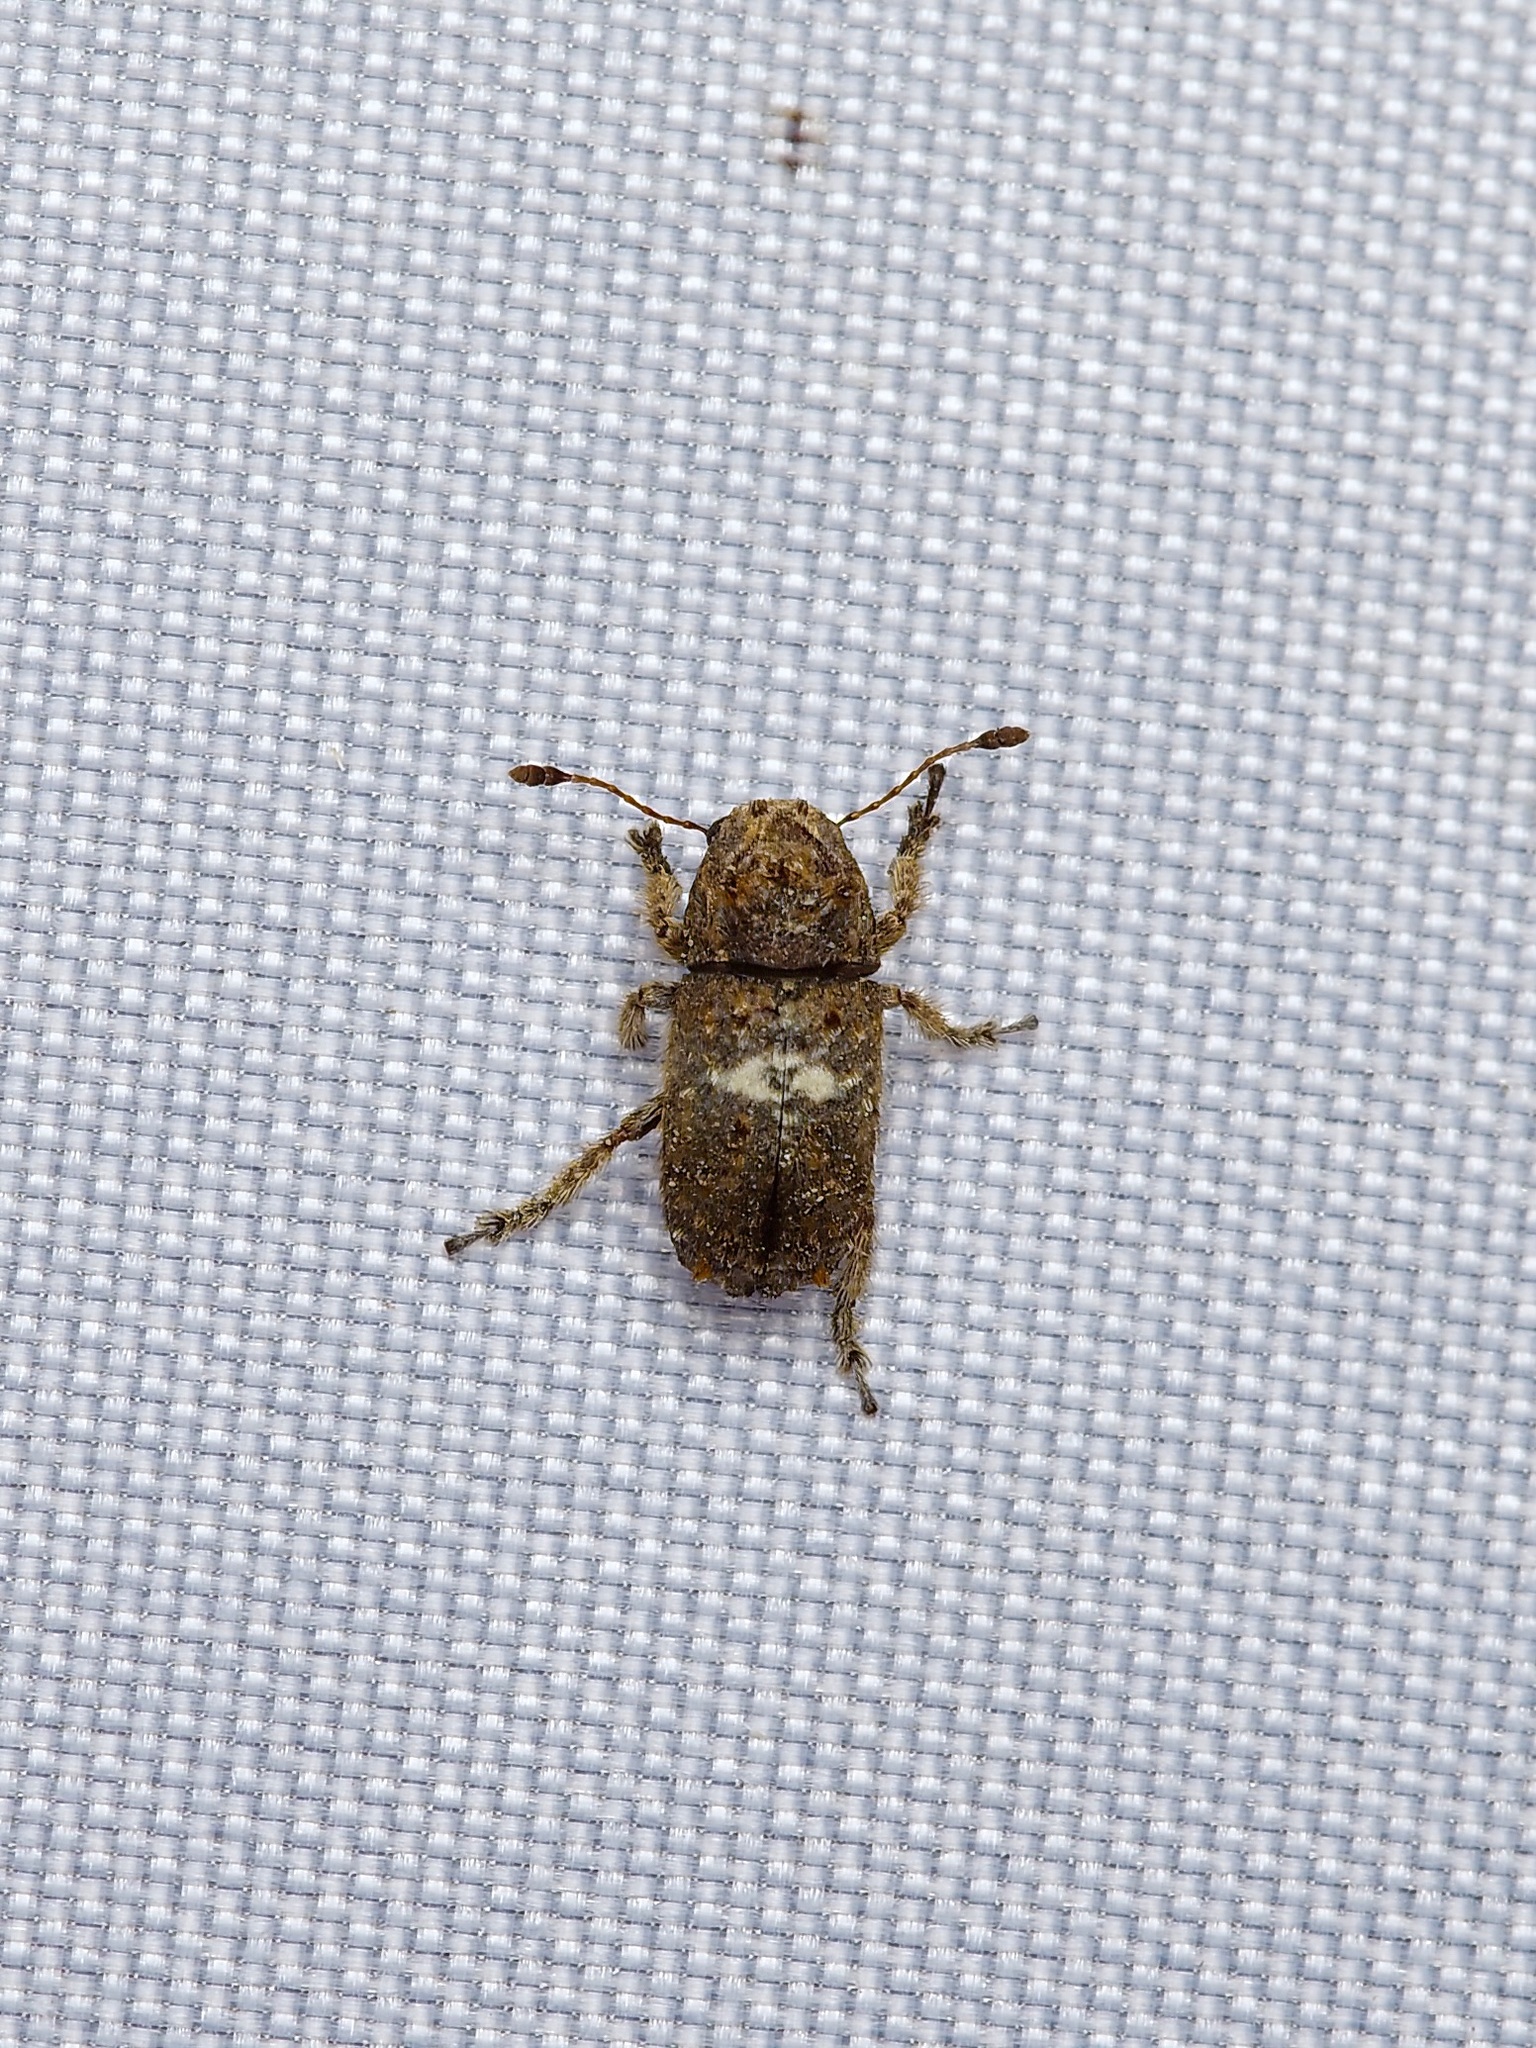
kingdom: Animalia
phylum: Arthropoda
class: Insecta
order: Coleoptera
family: Anthribidae
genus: Toxonotus
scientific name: Toxonotus cornutus
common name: Fungus weevil
